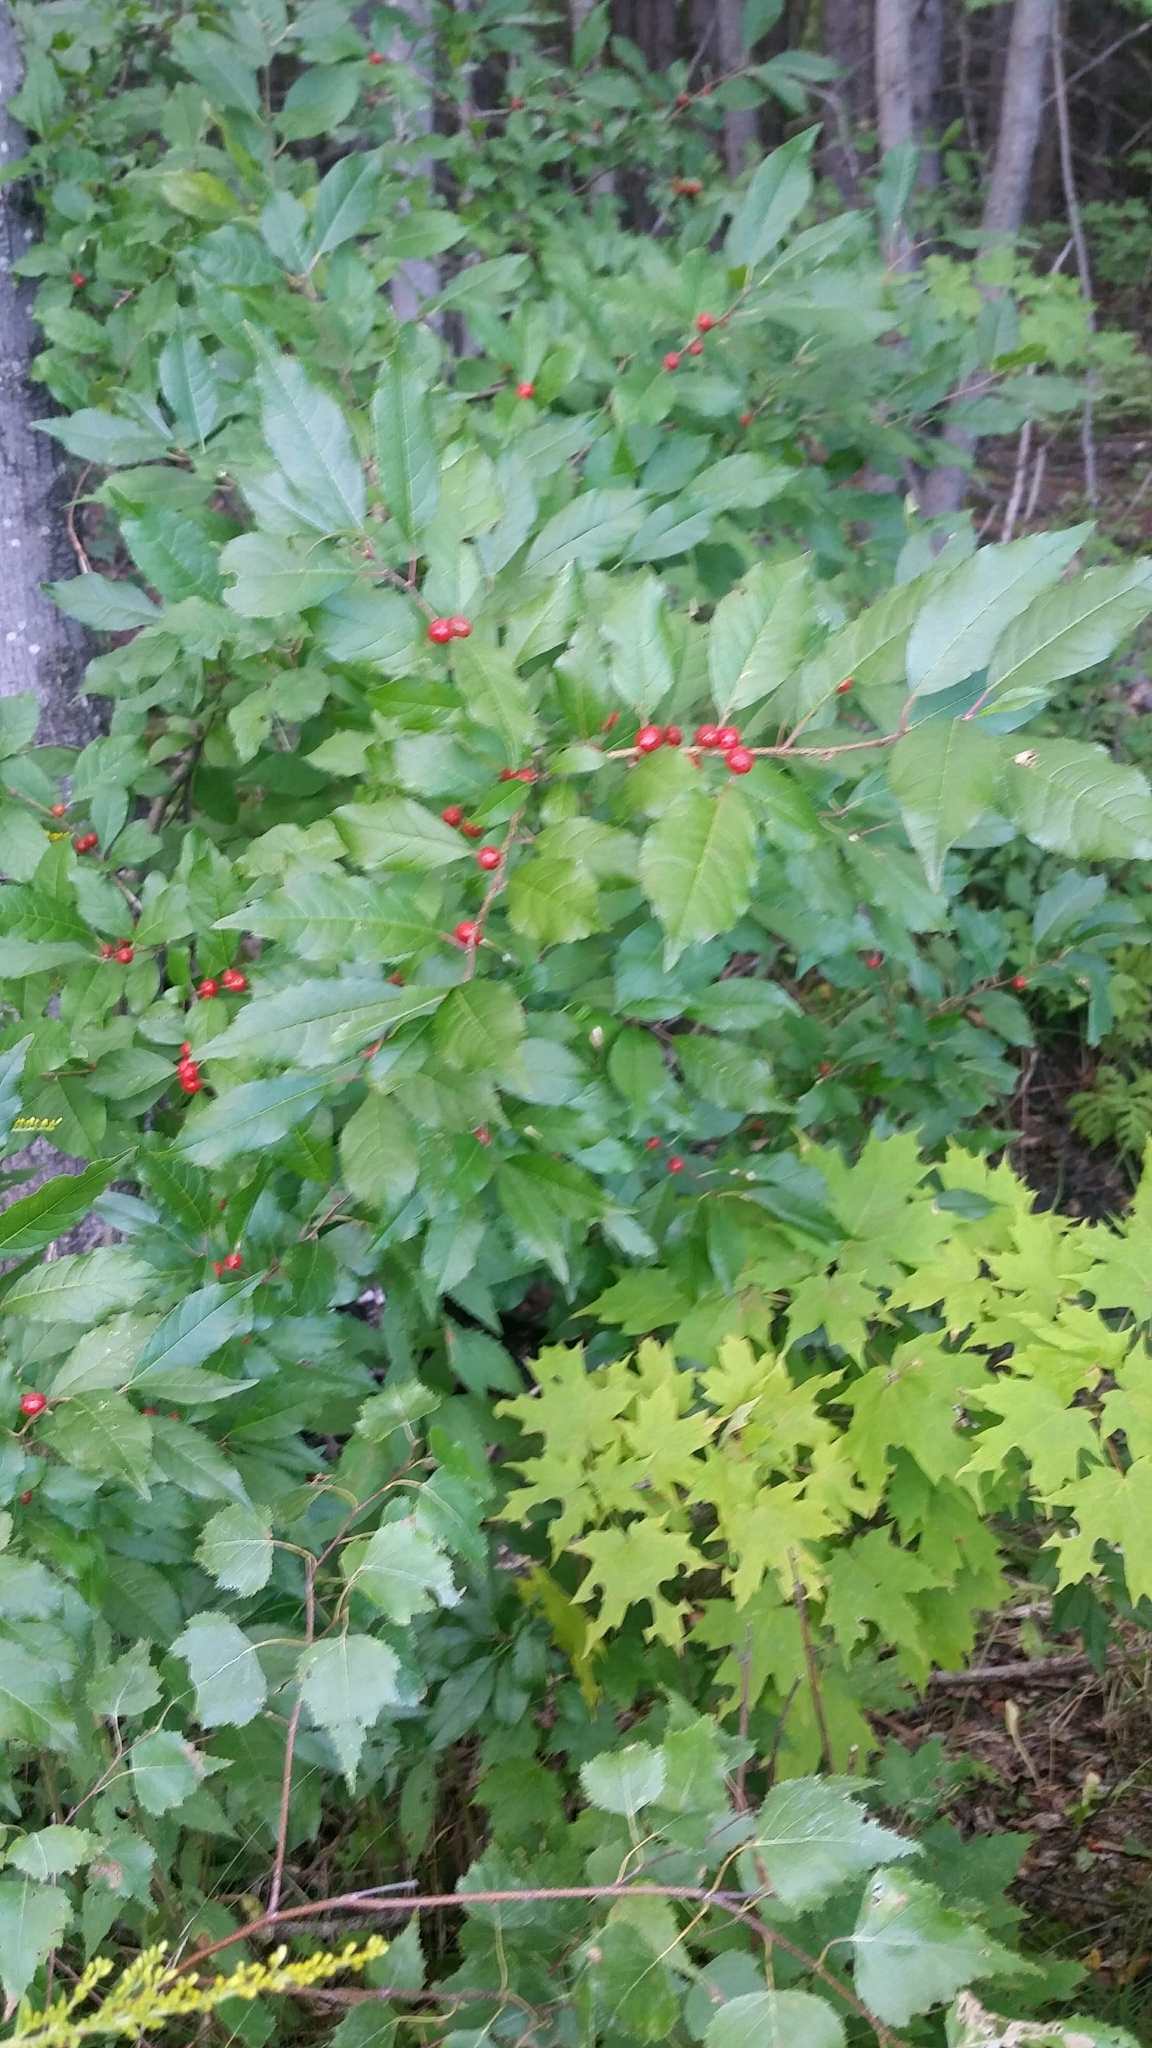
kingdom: Plantae
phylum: Tracheophyta
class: Magnoliopsida
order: Aquifoliales
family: Aquifoliaceae
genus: Ilex
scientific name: Ilex verticillata
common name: Virginia winterberry
